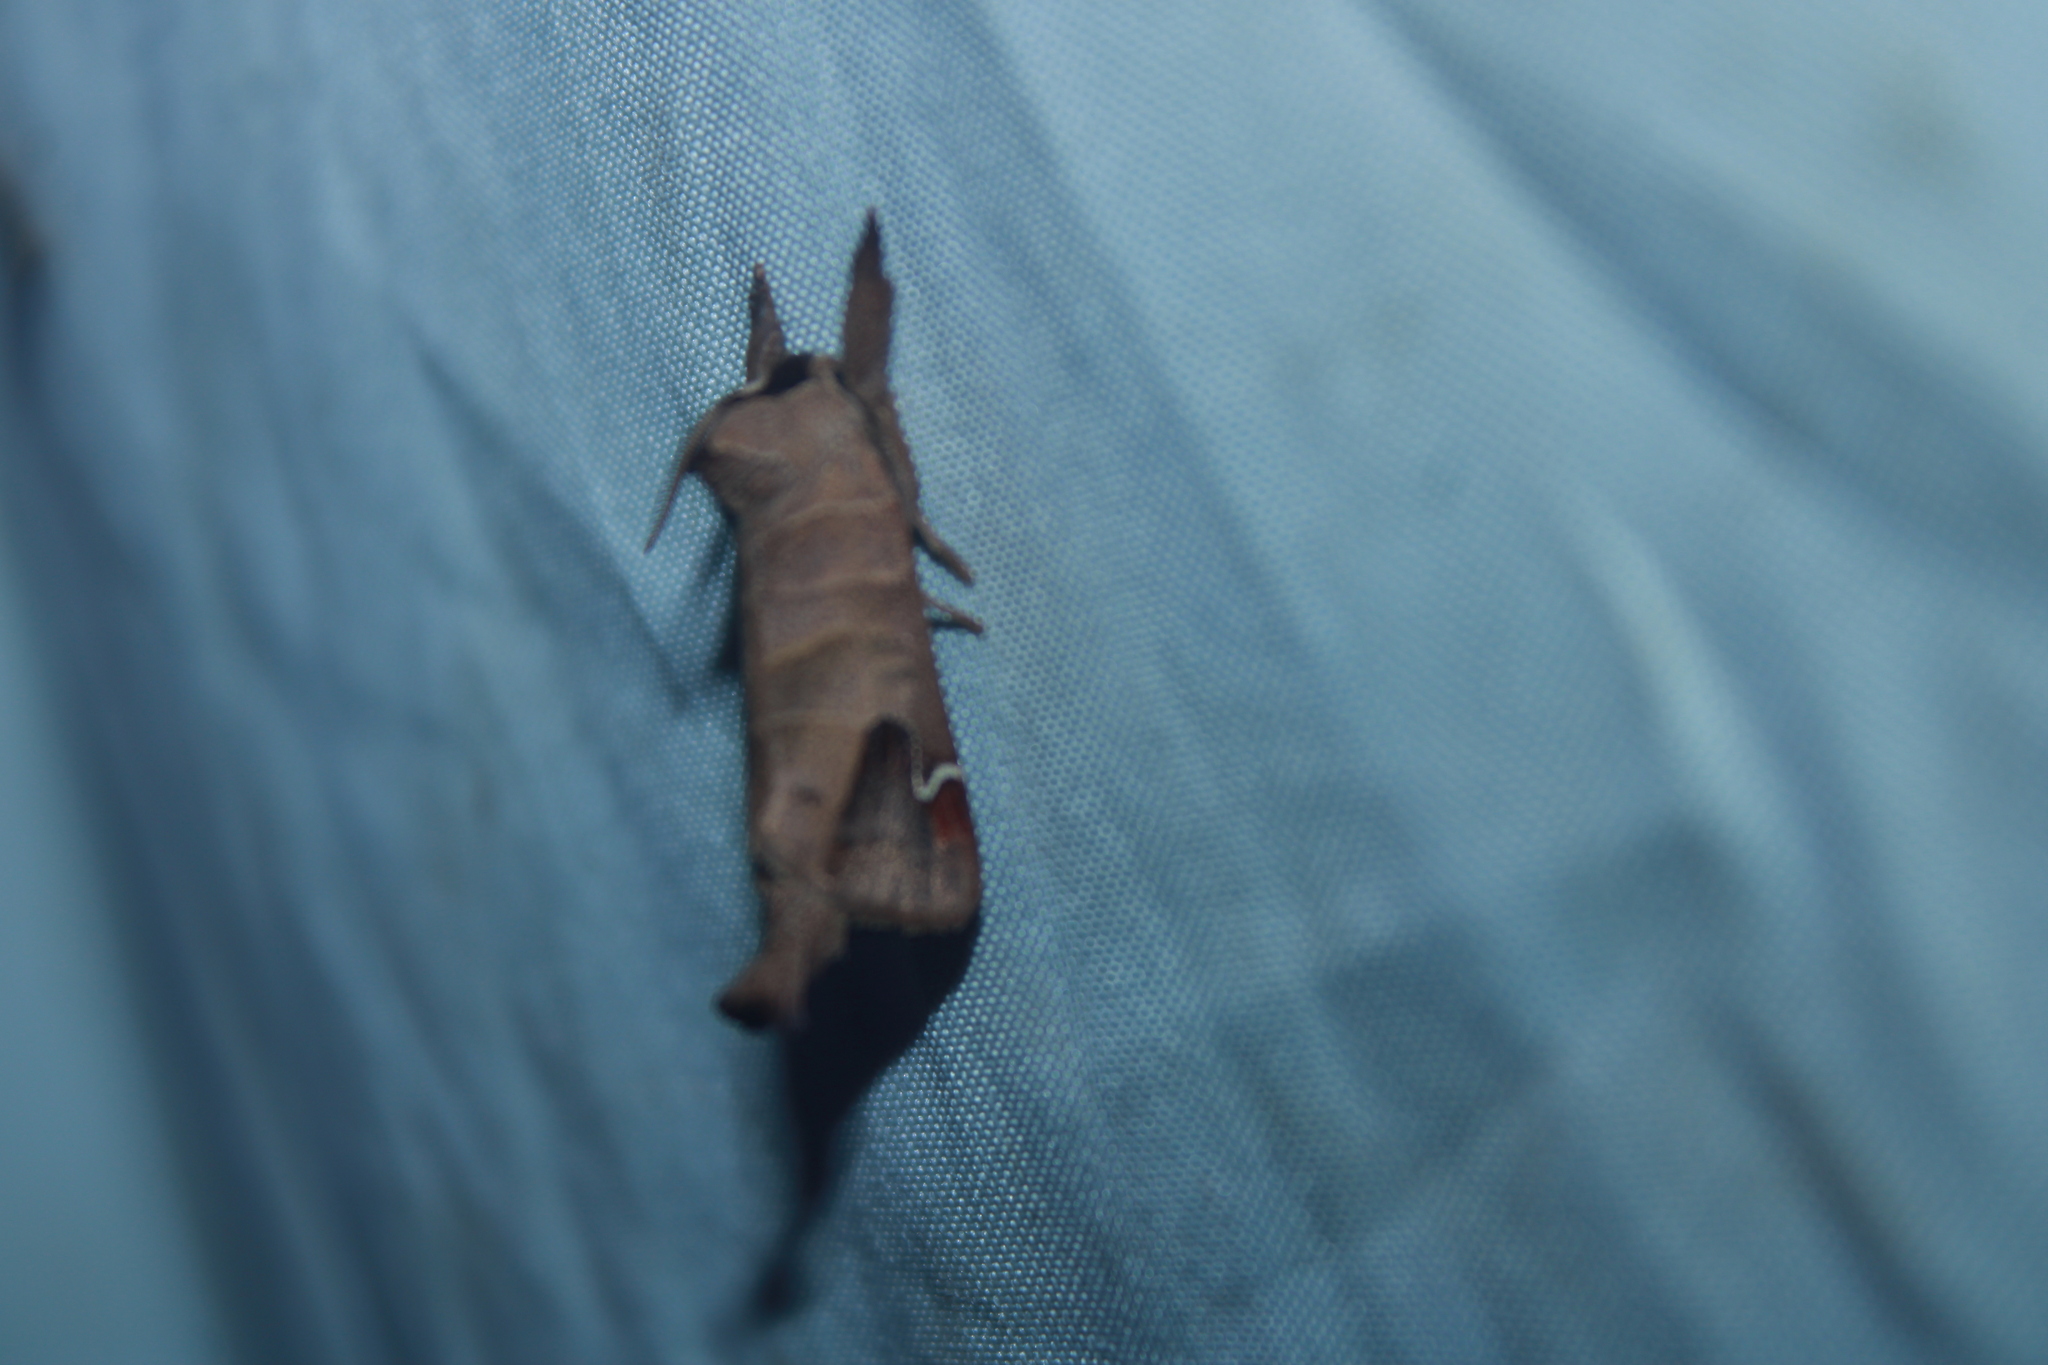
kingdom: Animalia
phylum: Arthropoda
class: Insecta
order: Lepidoptera
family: Notodontidae
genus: Clostera
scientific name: Clostera albosigma
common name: Sigmoid prominent
